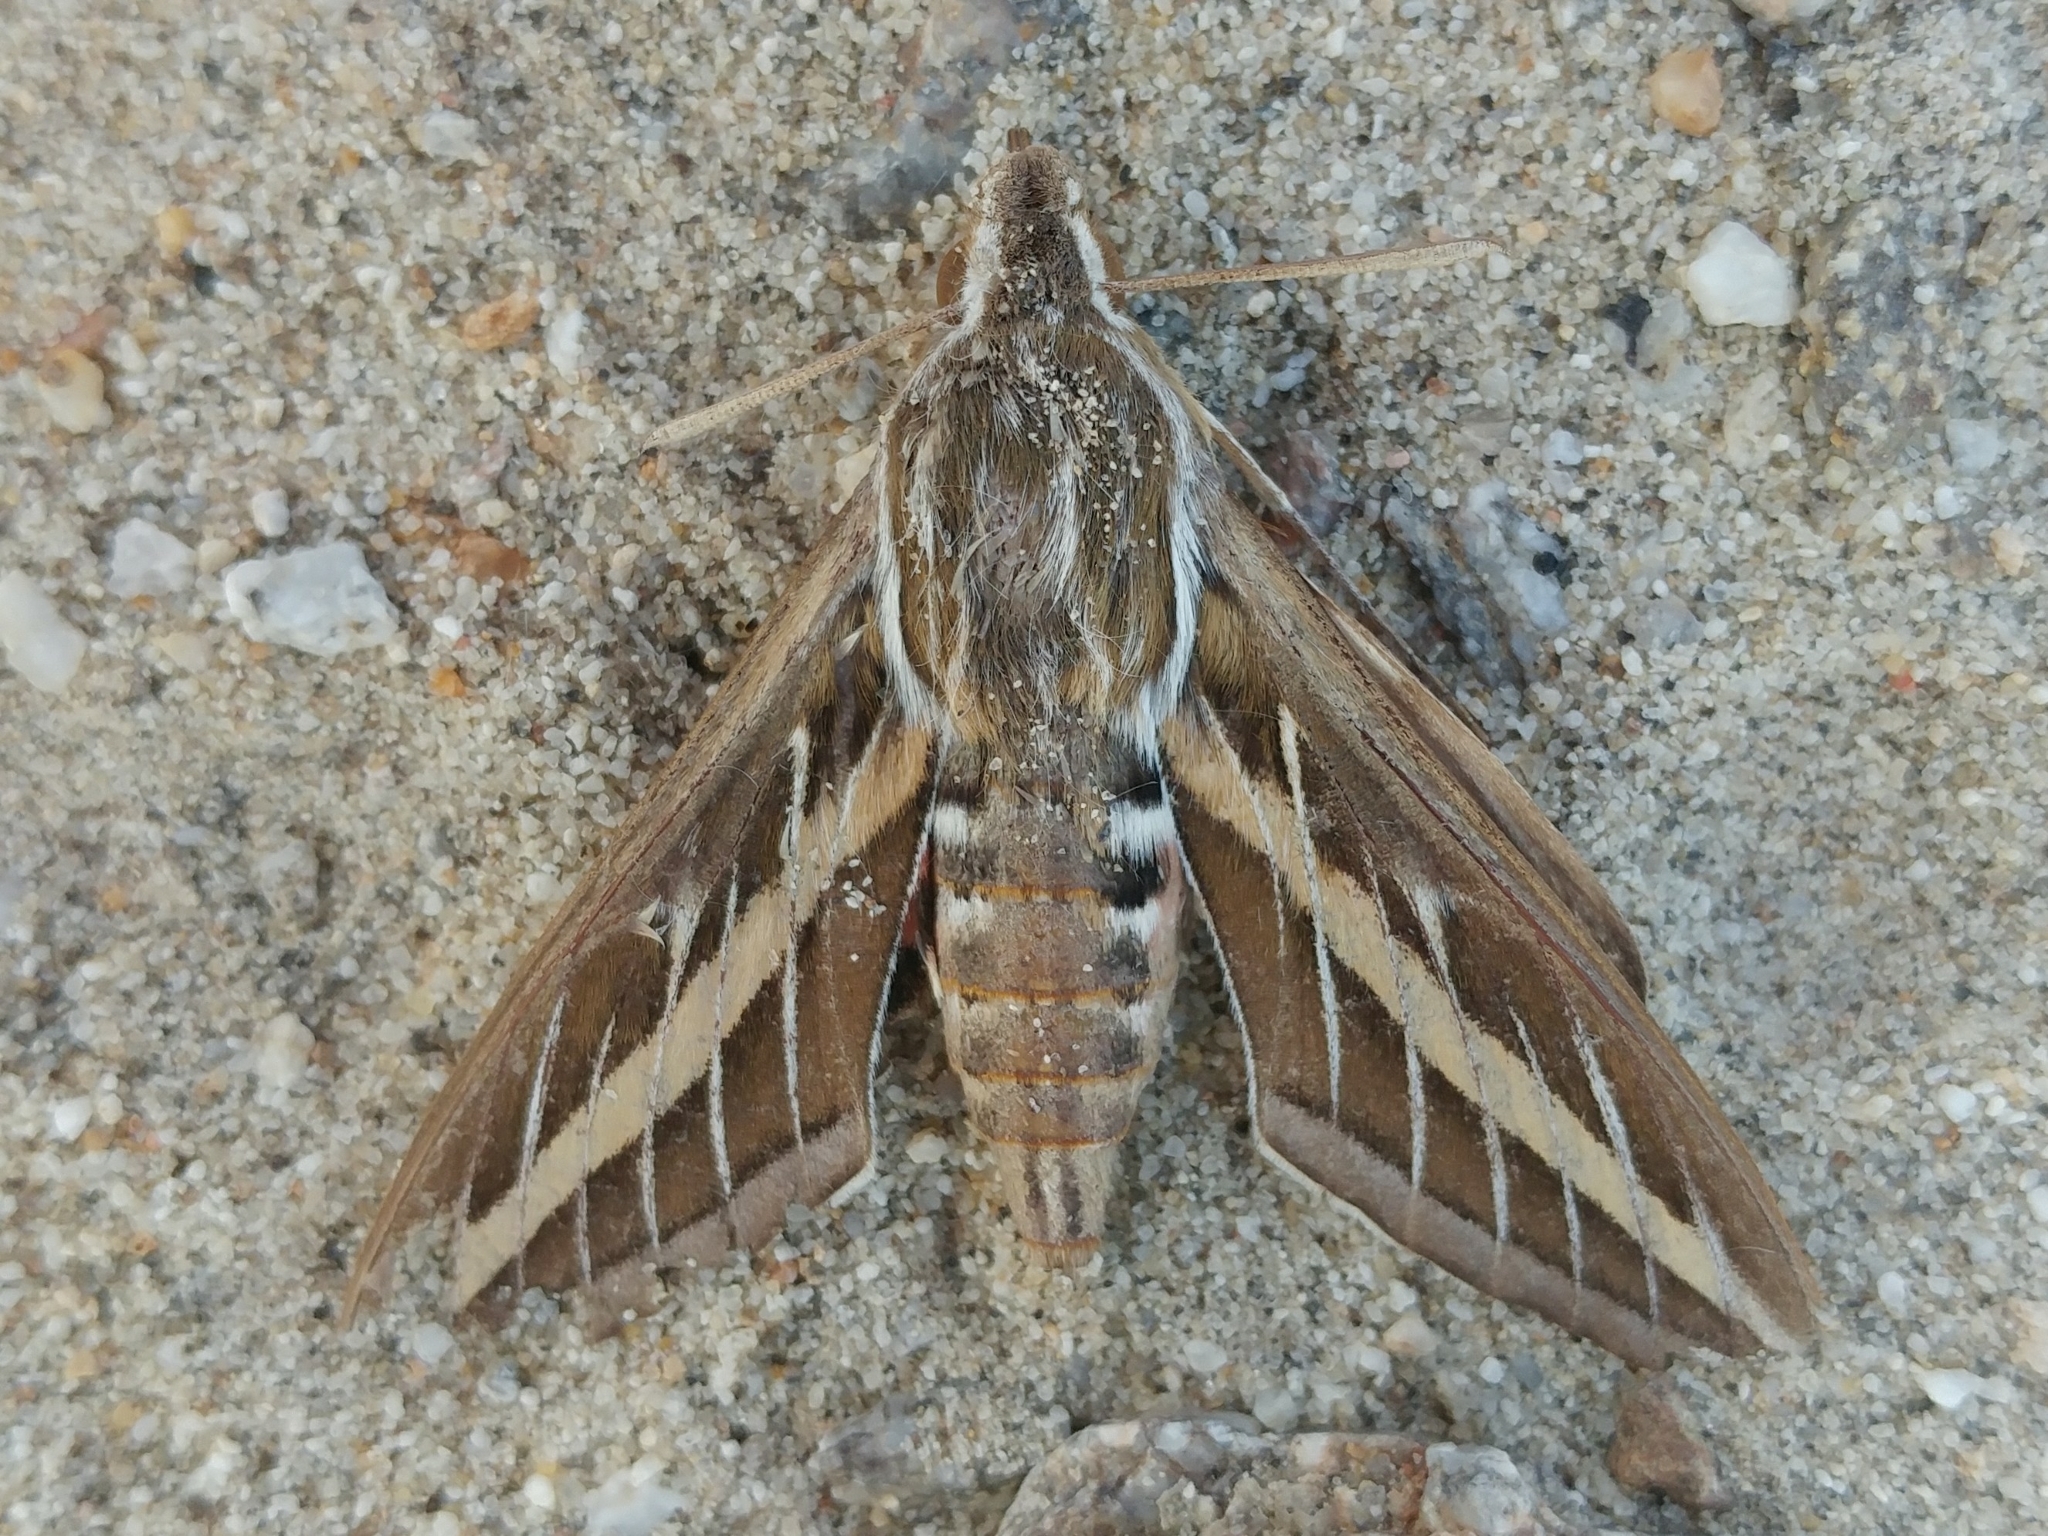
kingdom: Animalia
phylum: Arthropoda
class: Insecta
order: Lepidoptera
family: Sphingidae
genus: Hyles
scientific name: Hyles lineata
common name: White-lined sphinx
